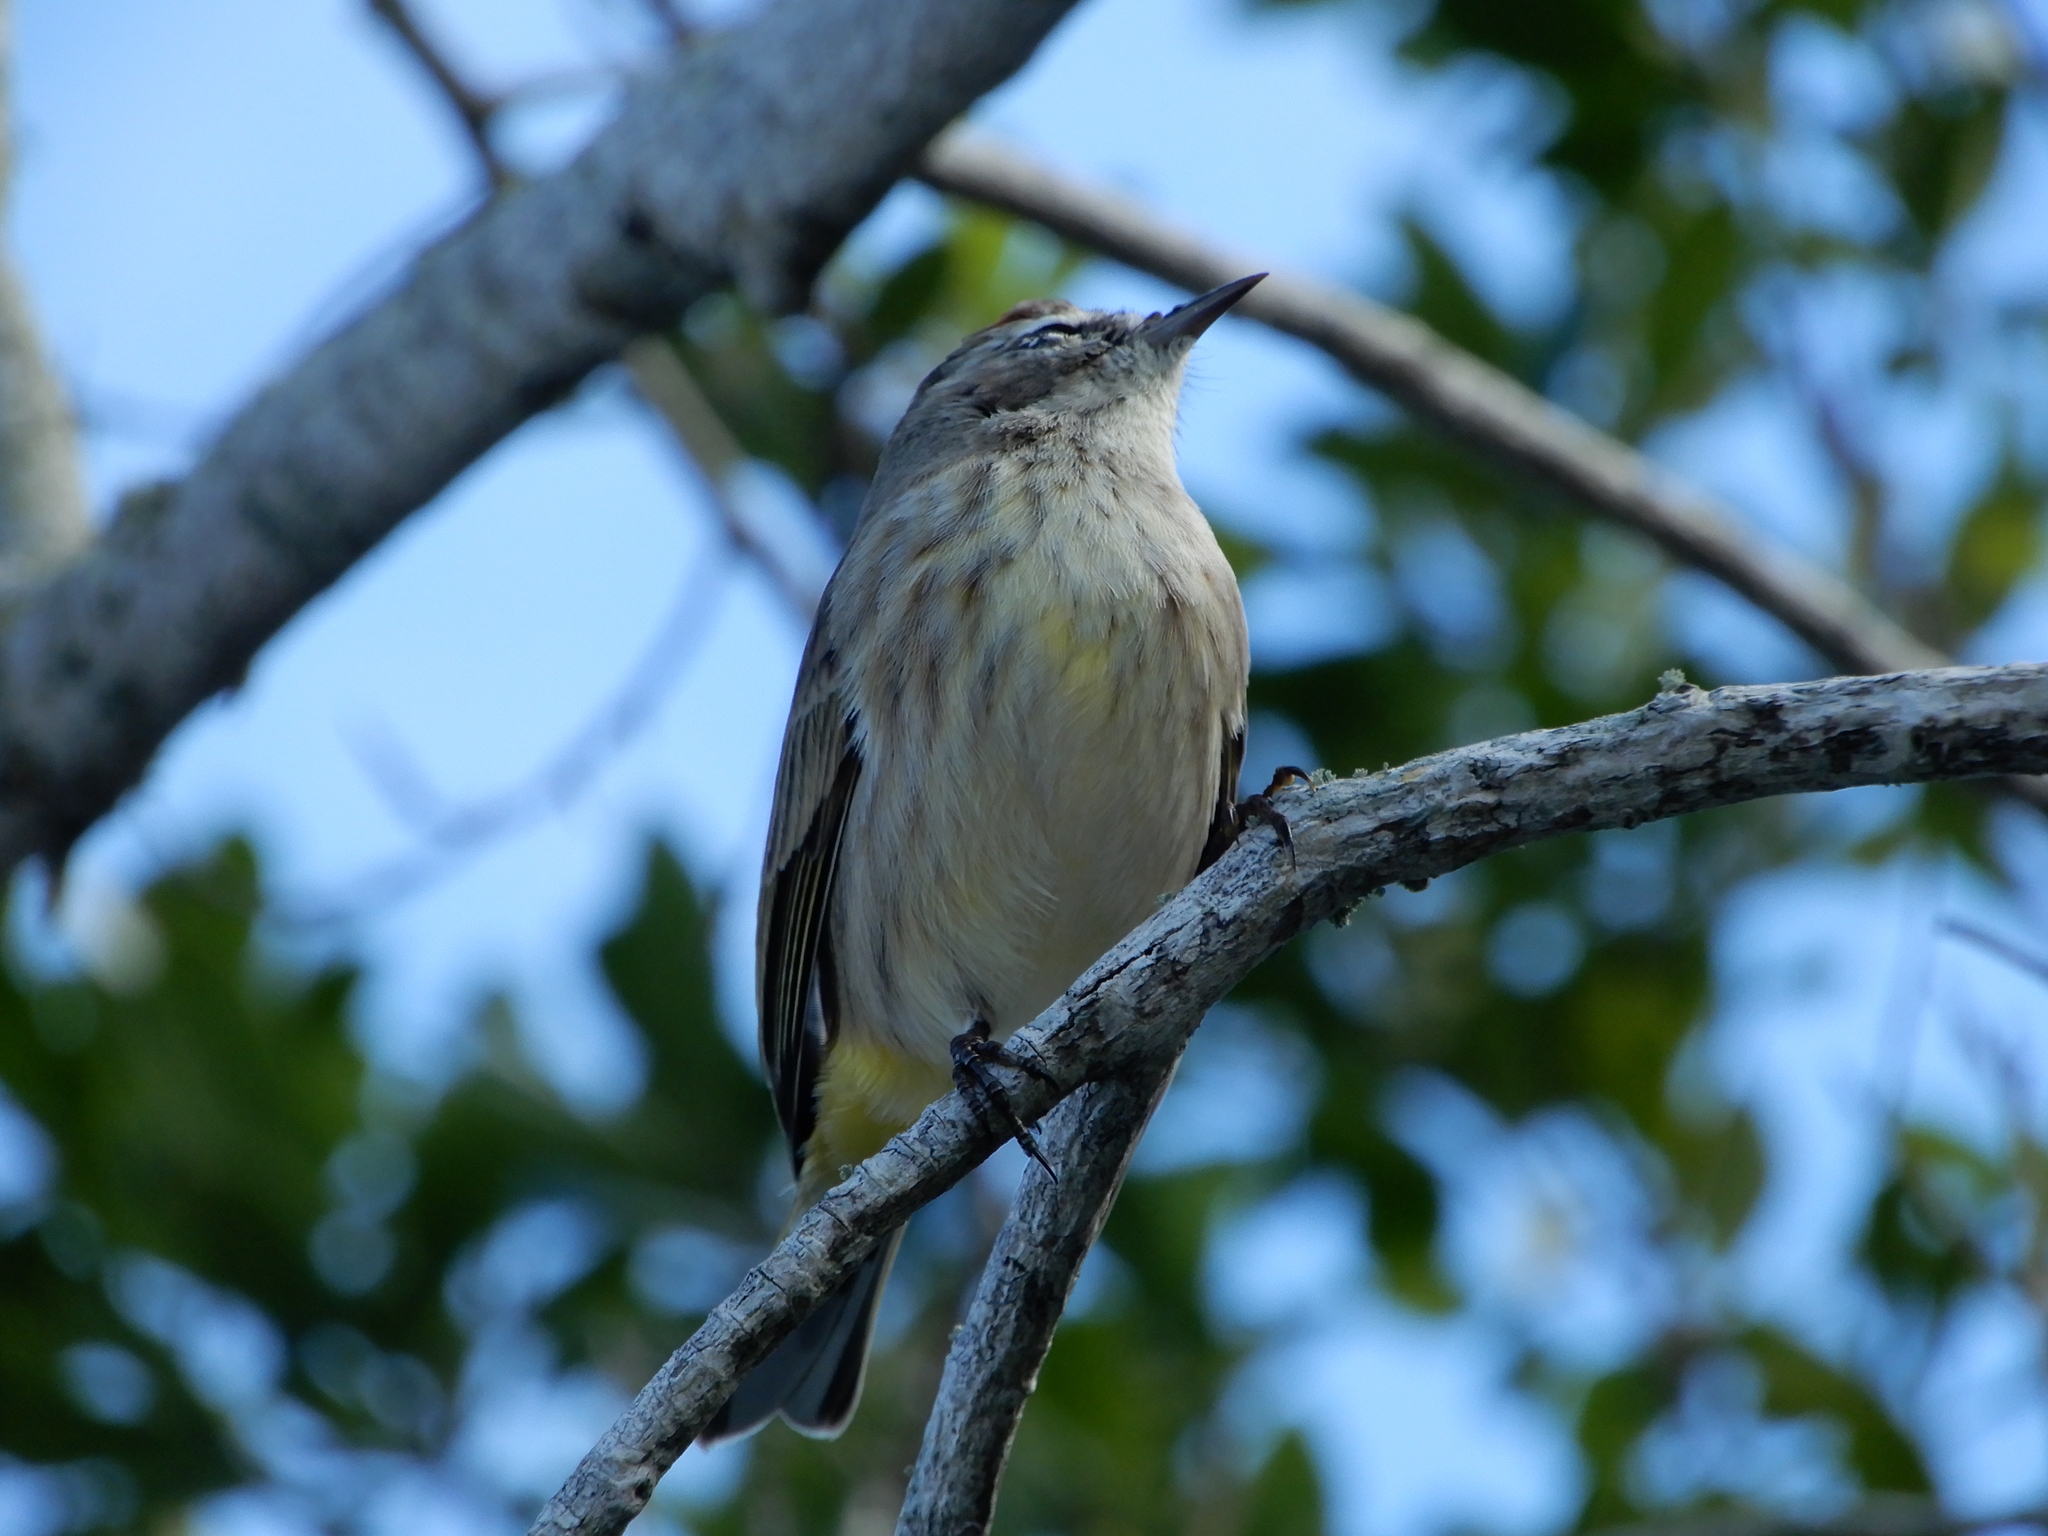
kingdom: Animalia
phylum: Chordata
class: Aves
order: Passeriformes
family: Parulidae
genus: Setophaga
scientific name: Setophaga palmarum
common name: Palm warbler
